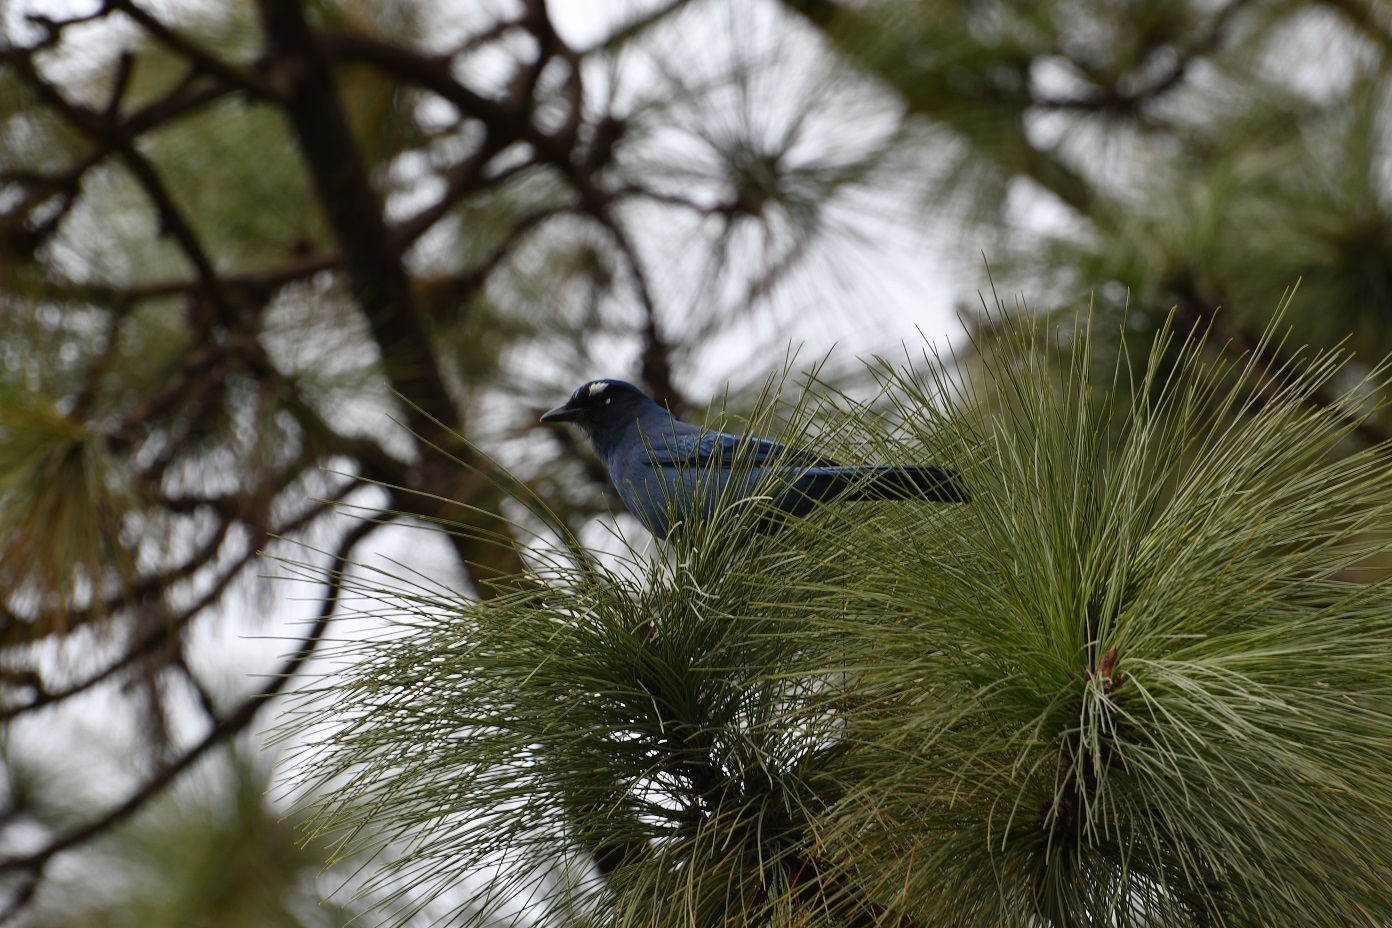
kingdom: Animalia
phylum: Chordata
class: Aves
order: Passeriformes
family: Corvidae
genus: Cyanocitta
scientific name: Cyanocitta stelleri
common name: Steller's jay
